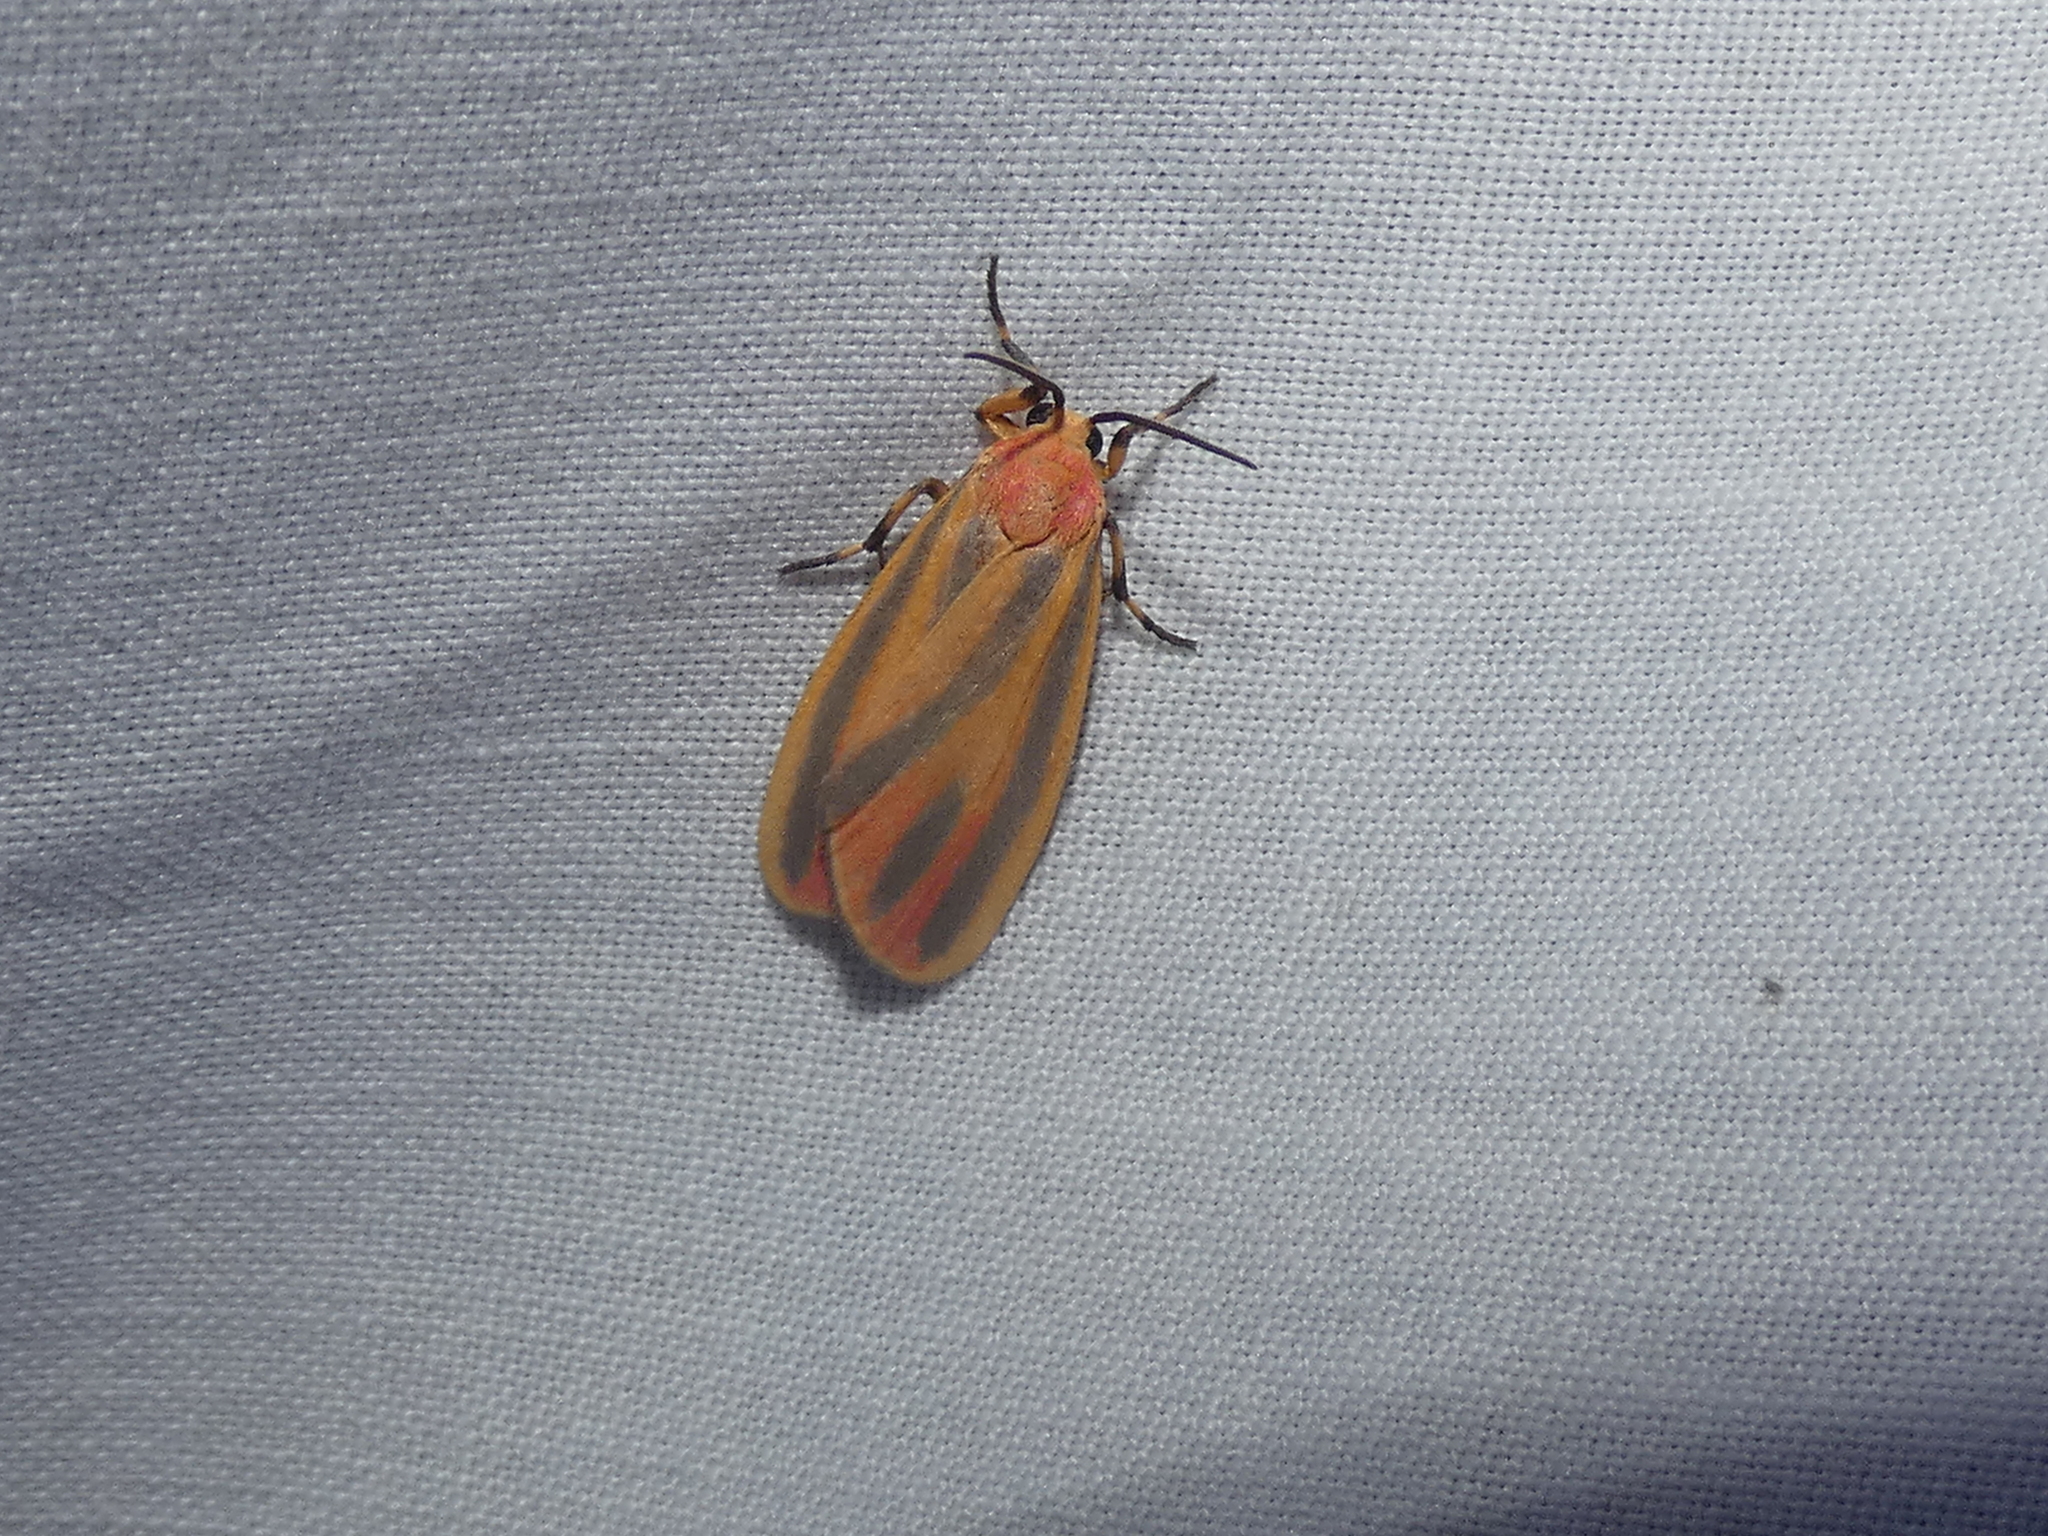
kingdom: Animalia
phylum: Arthropoda
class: Insecta
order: Lepidoptera
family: Erebidae
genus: Hypoprepia
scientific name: Hypoprepia fucosa
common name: Painted lichen moth
